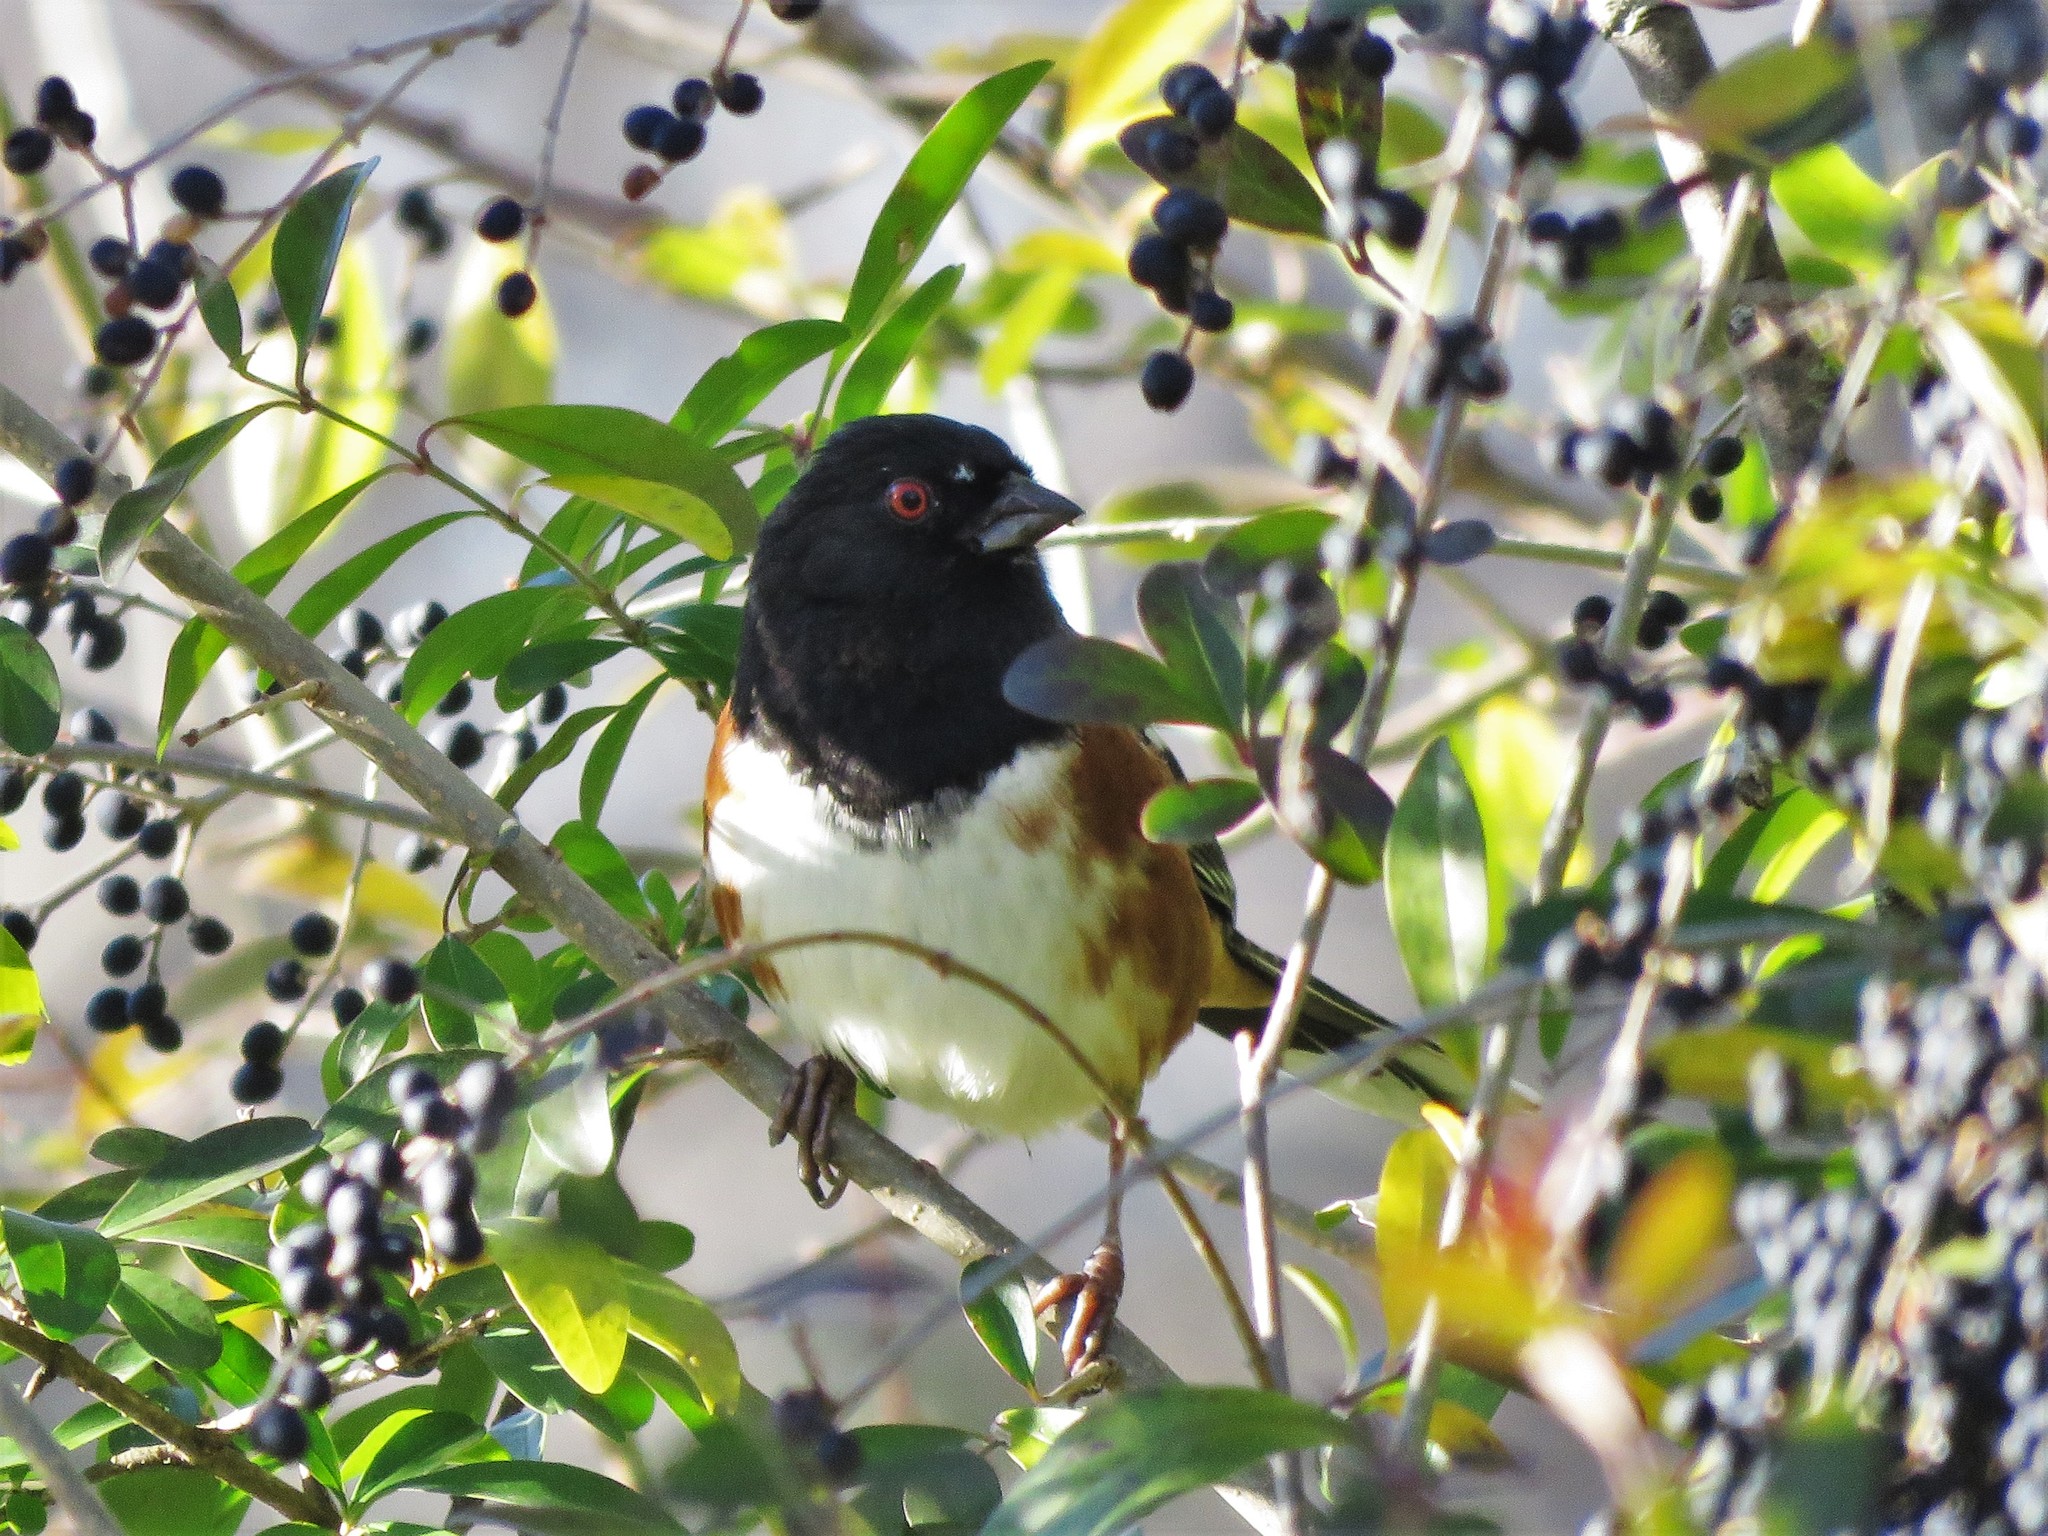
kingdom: Animalia
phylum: Chordata
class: Aves
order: Passeriformes
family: Passerellidae
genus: Pipilo
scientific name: Pipilo erythrophthalmus
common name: Eastern towhee
